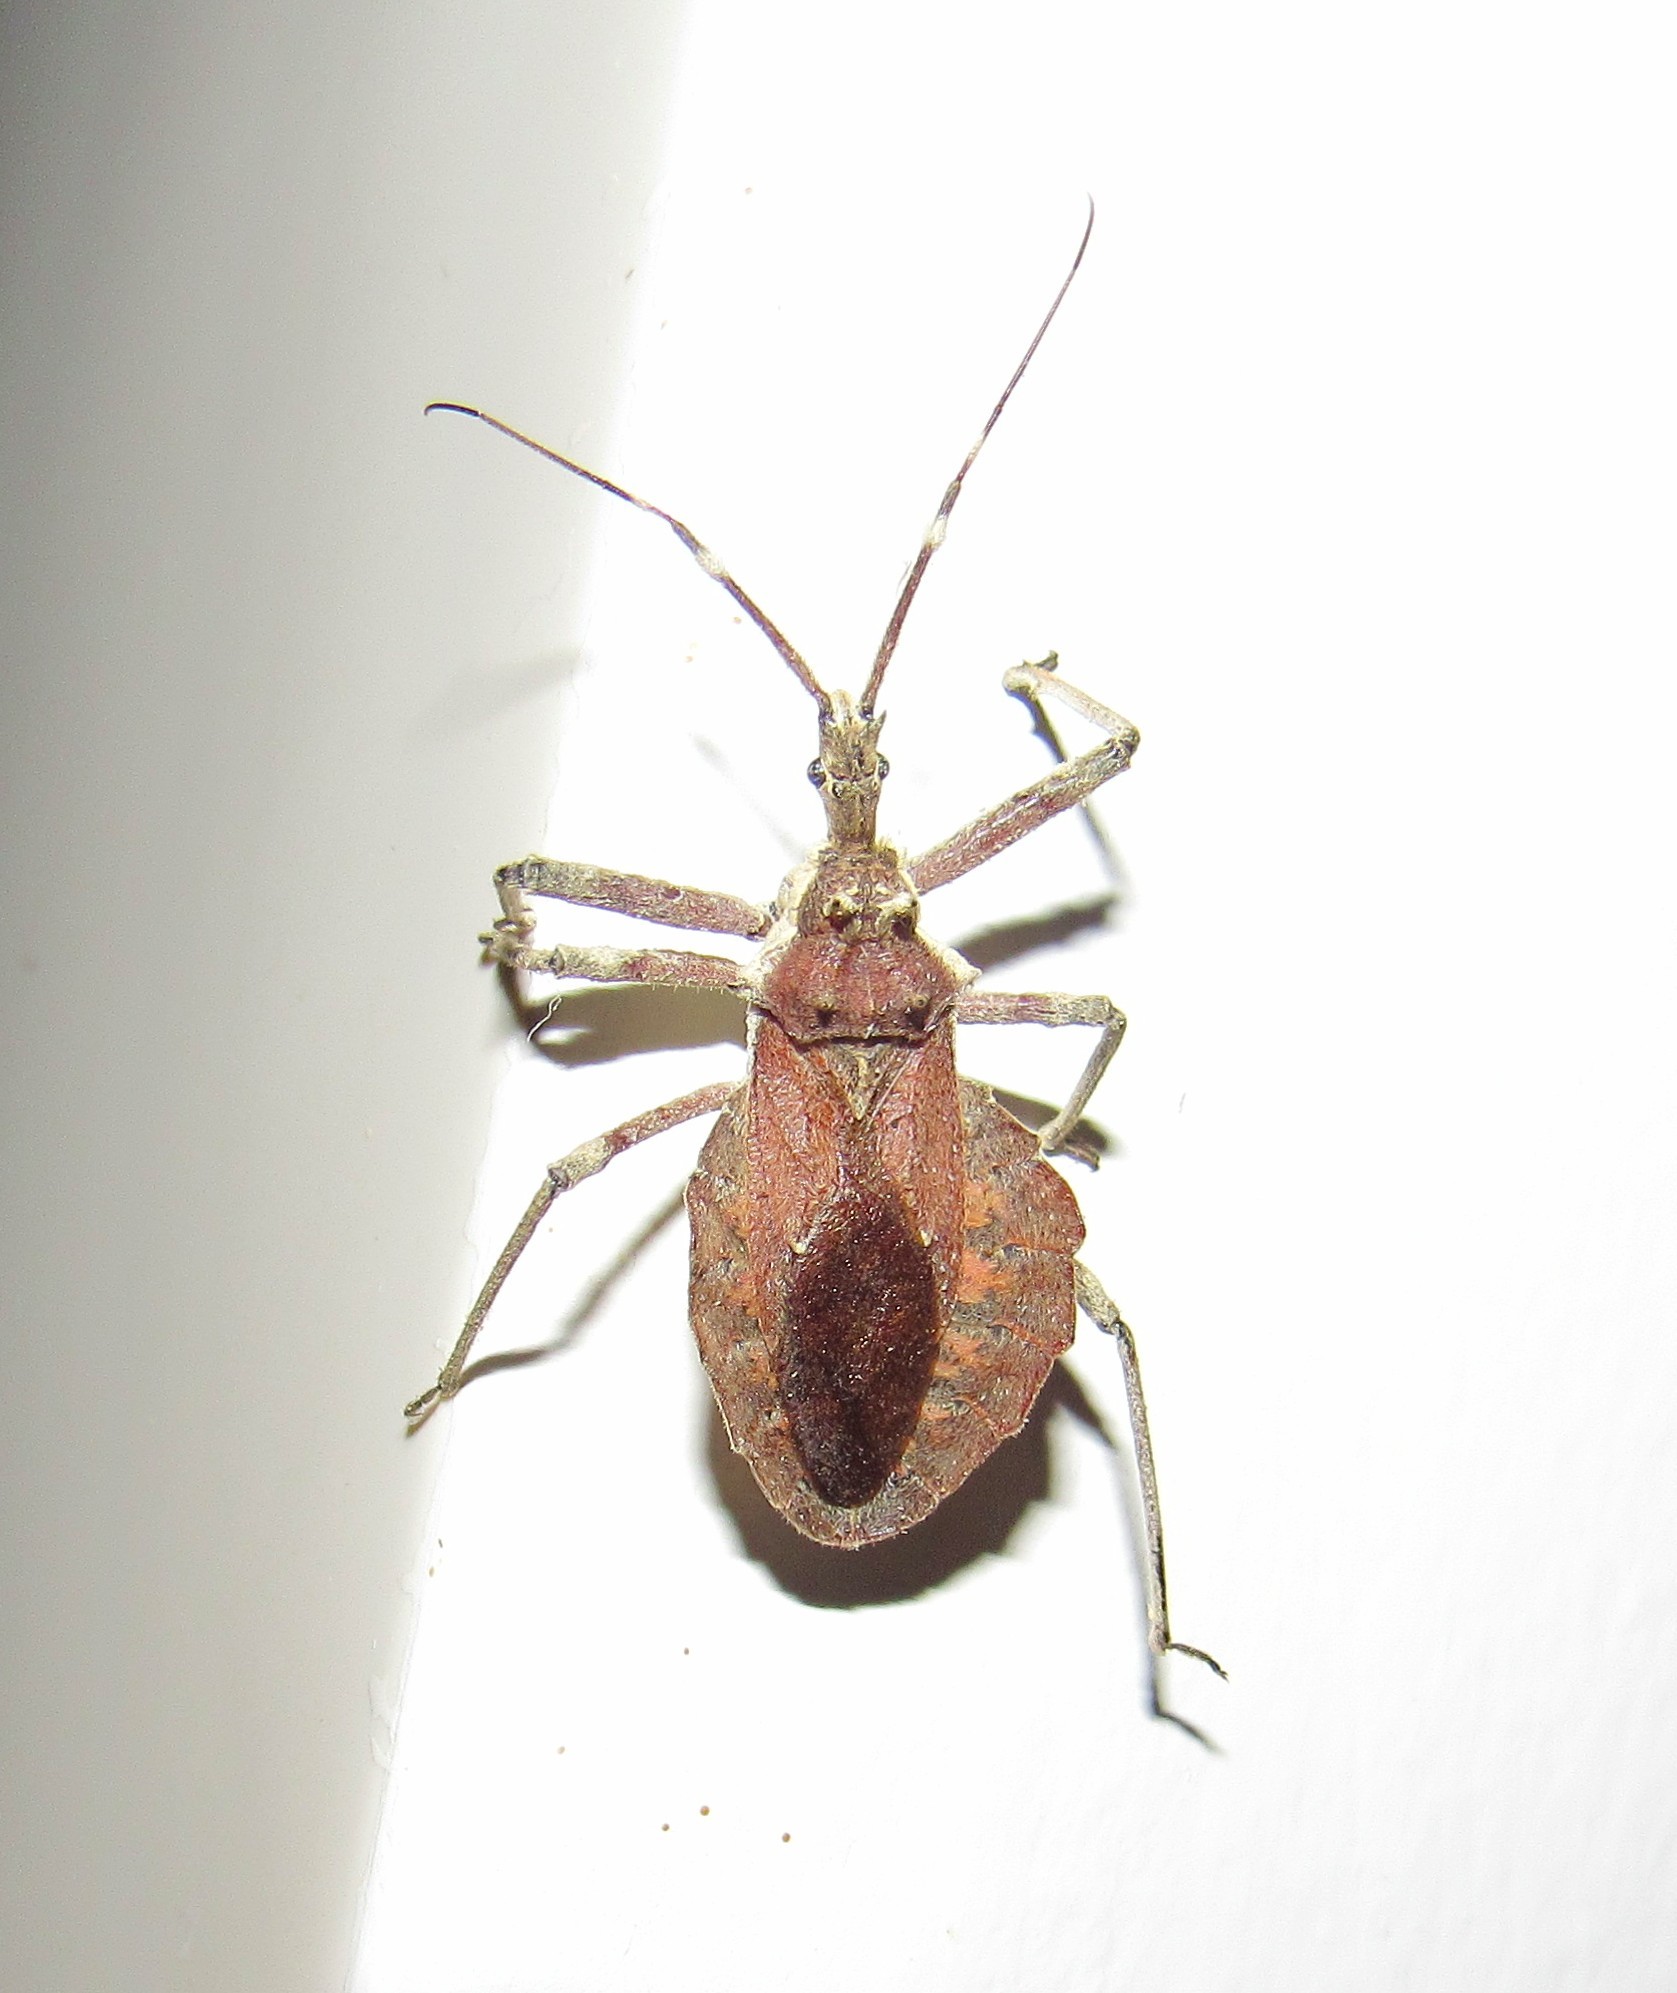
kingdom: Animalia
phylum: Arthropoda
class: Insecta
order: Hemiptera
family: Reduviidae
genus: Harpactor
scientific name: Harpactor angulosus
